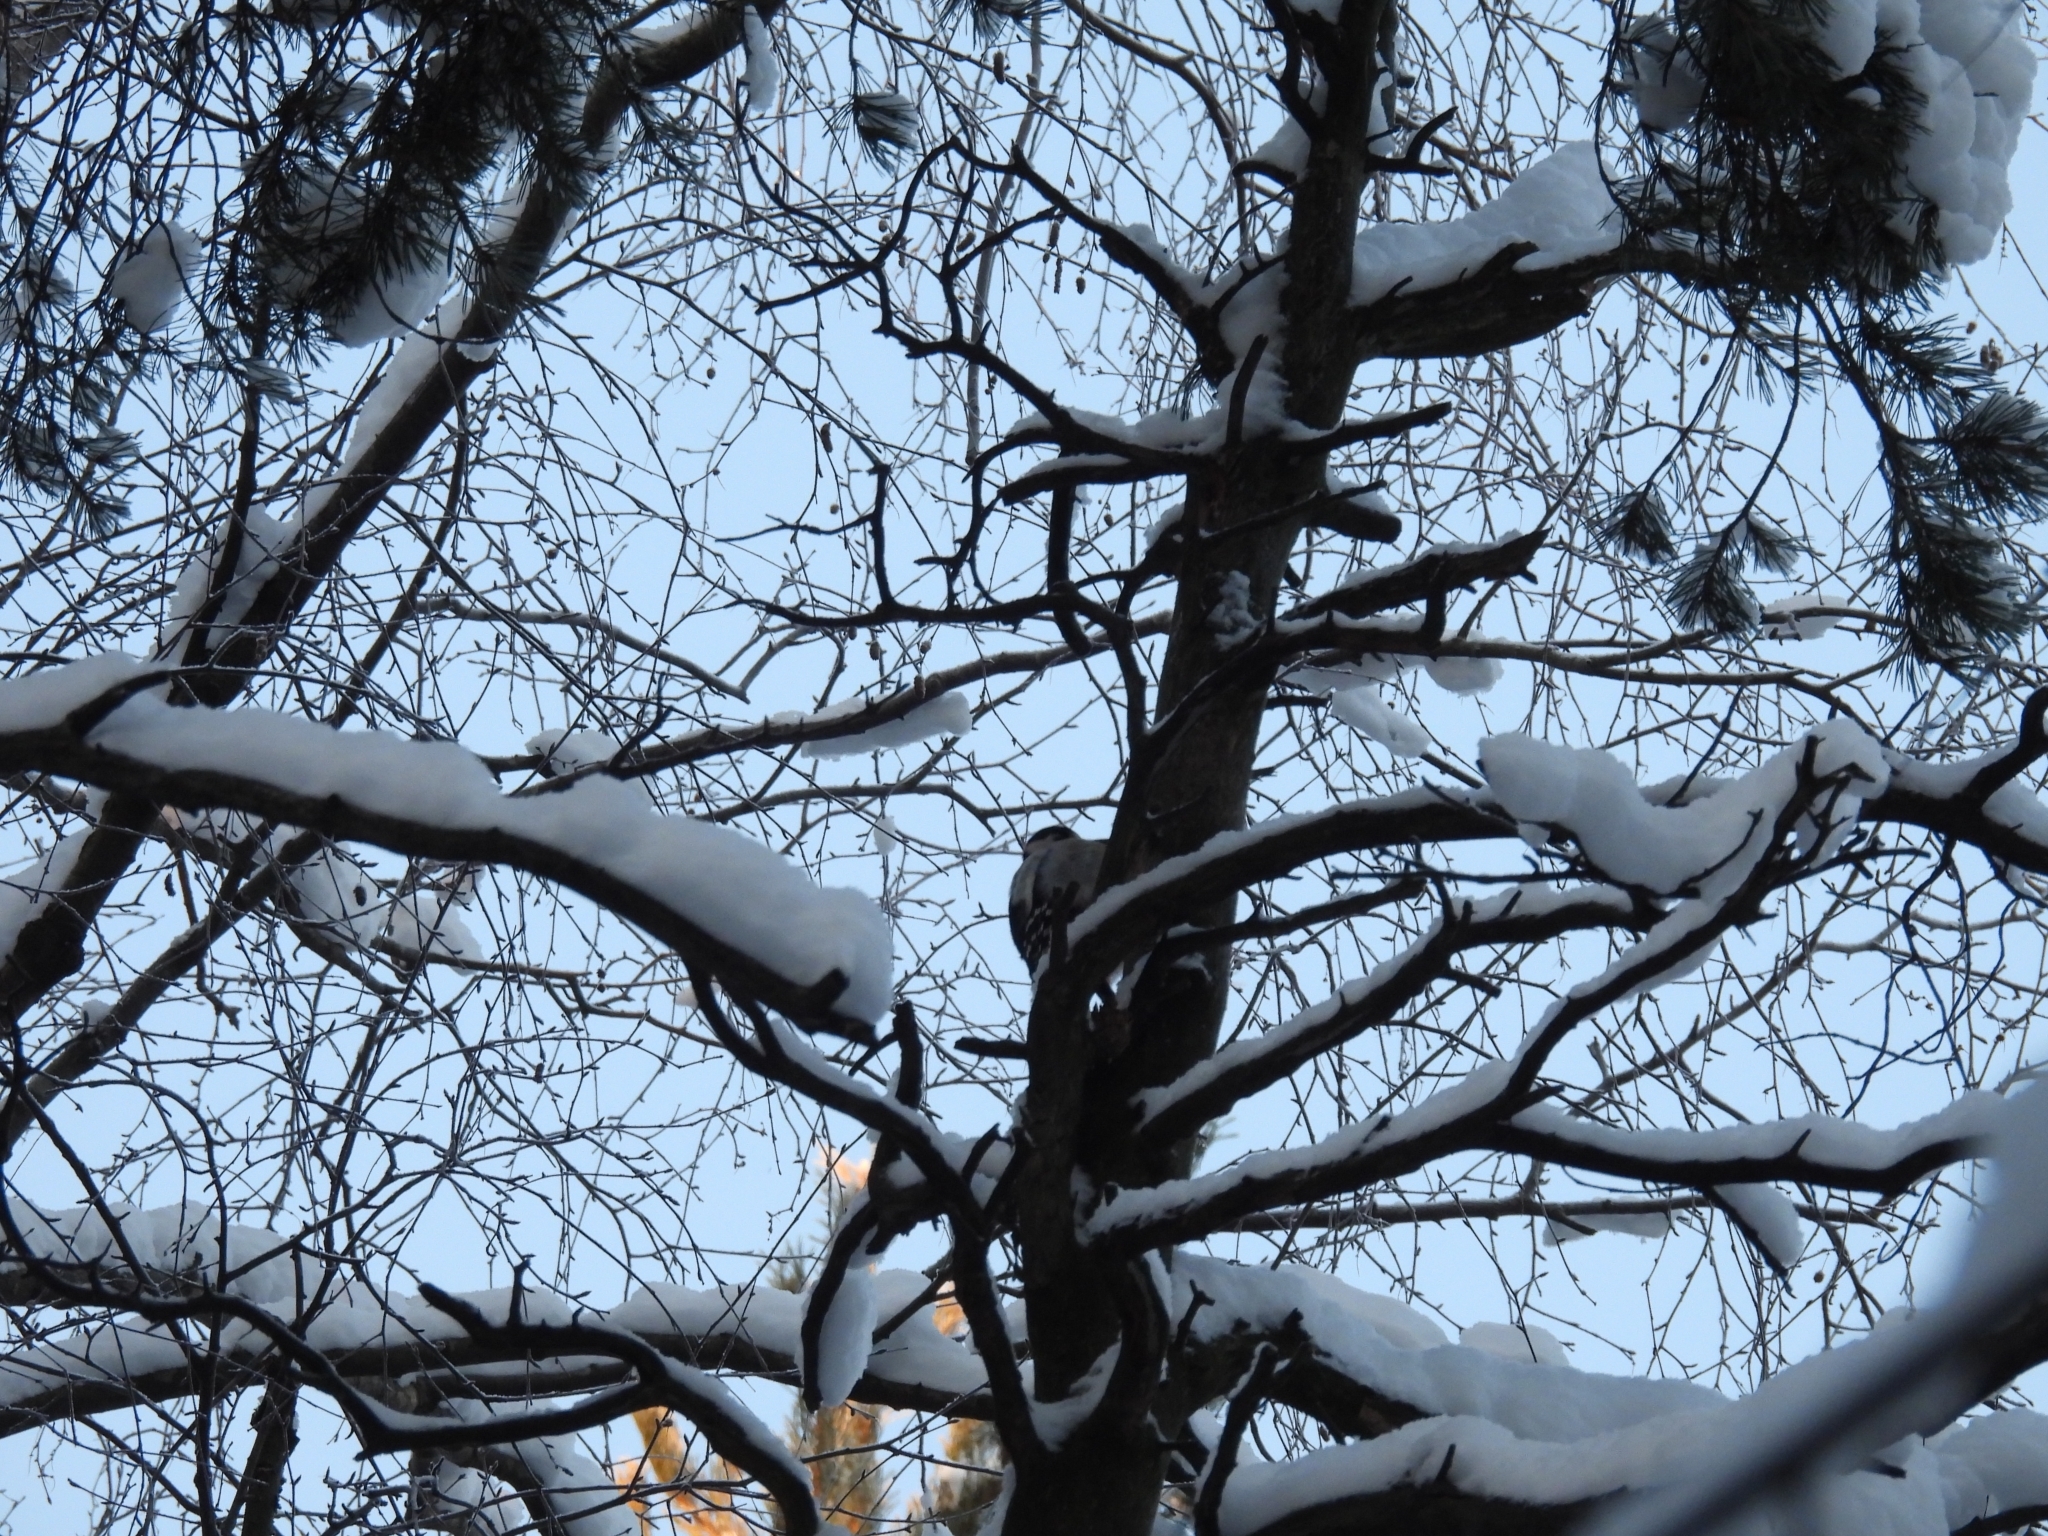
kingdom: Animalia
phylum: Chordata
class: Aves
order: Piciformes
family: Picidae
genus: Dendrocopos
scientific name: Dendrocopos major
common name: Great spotted woodpecker
